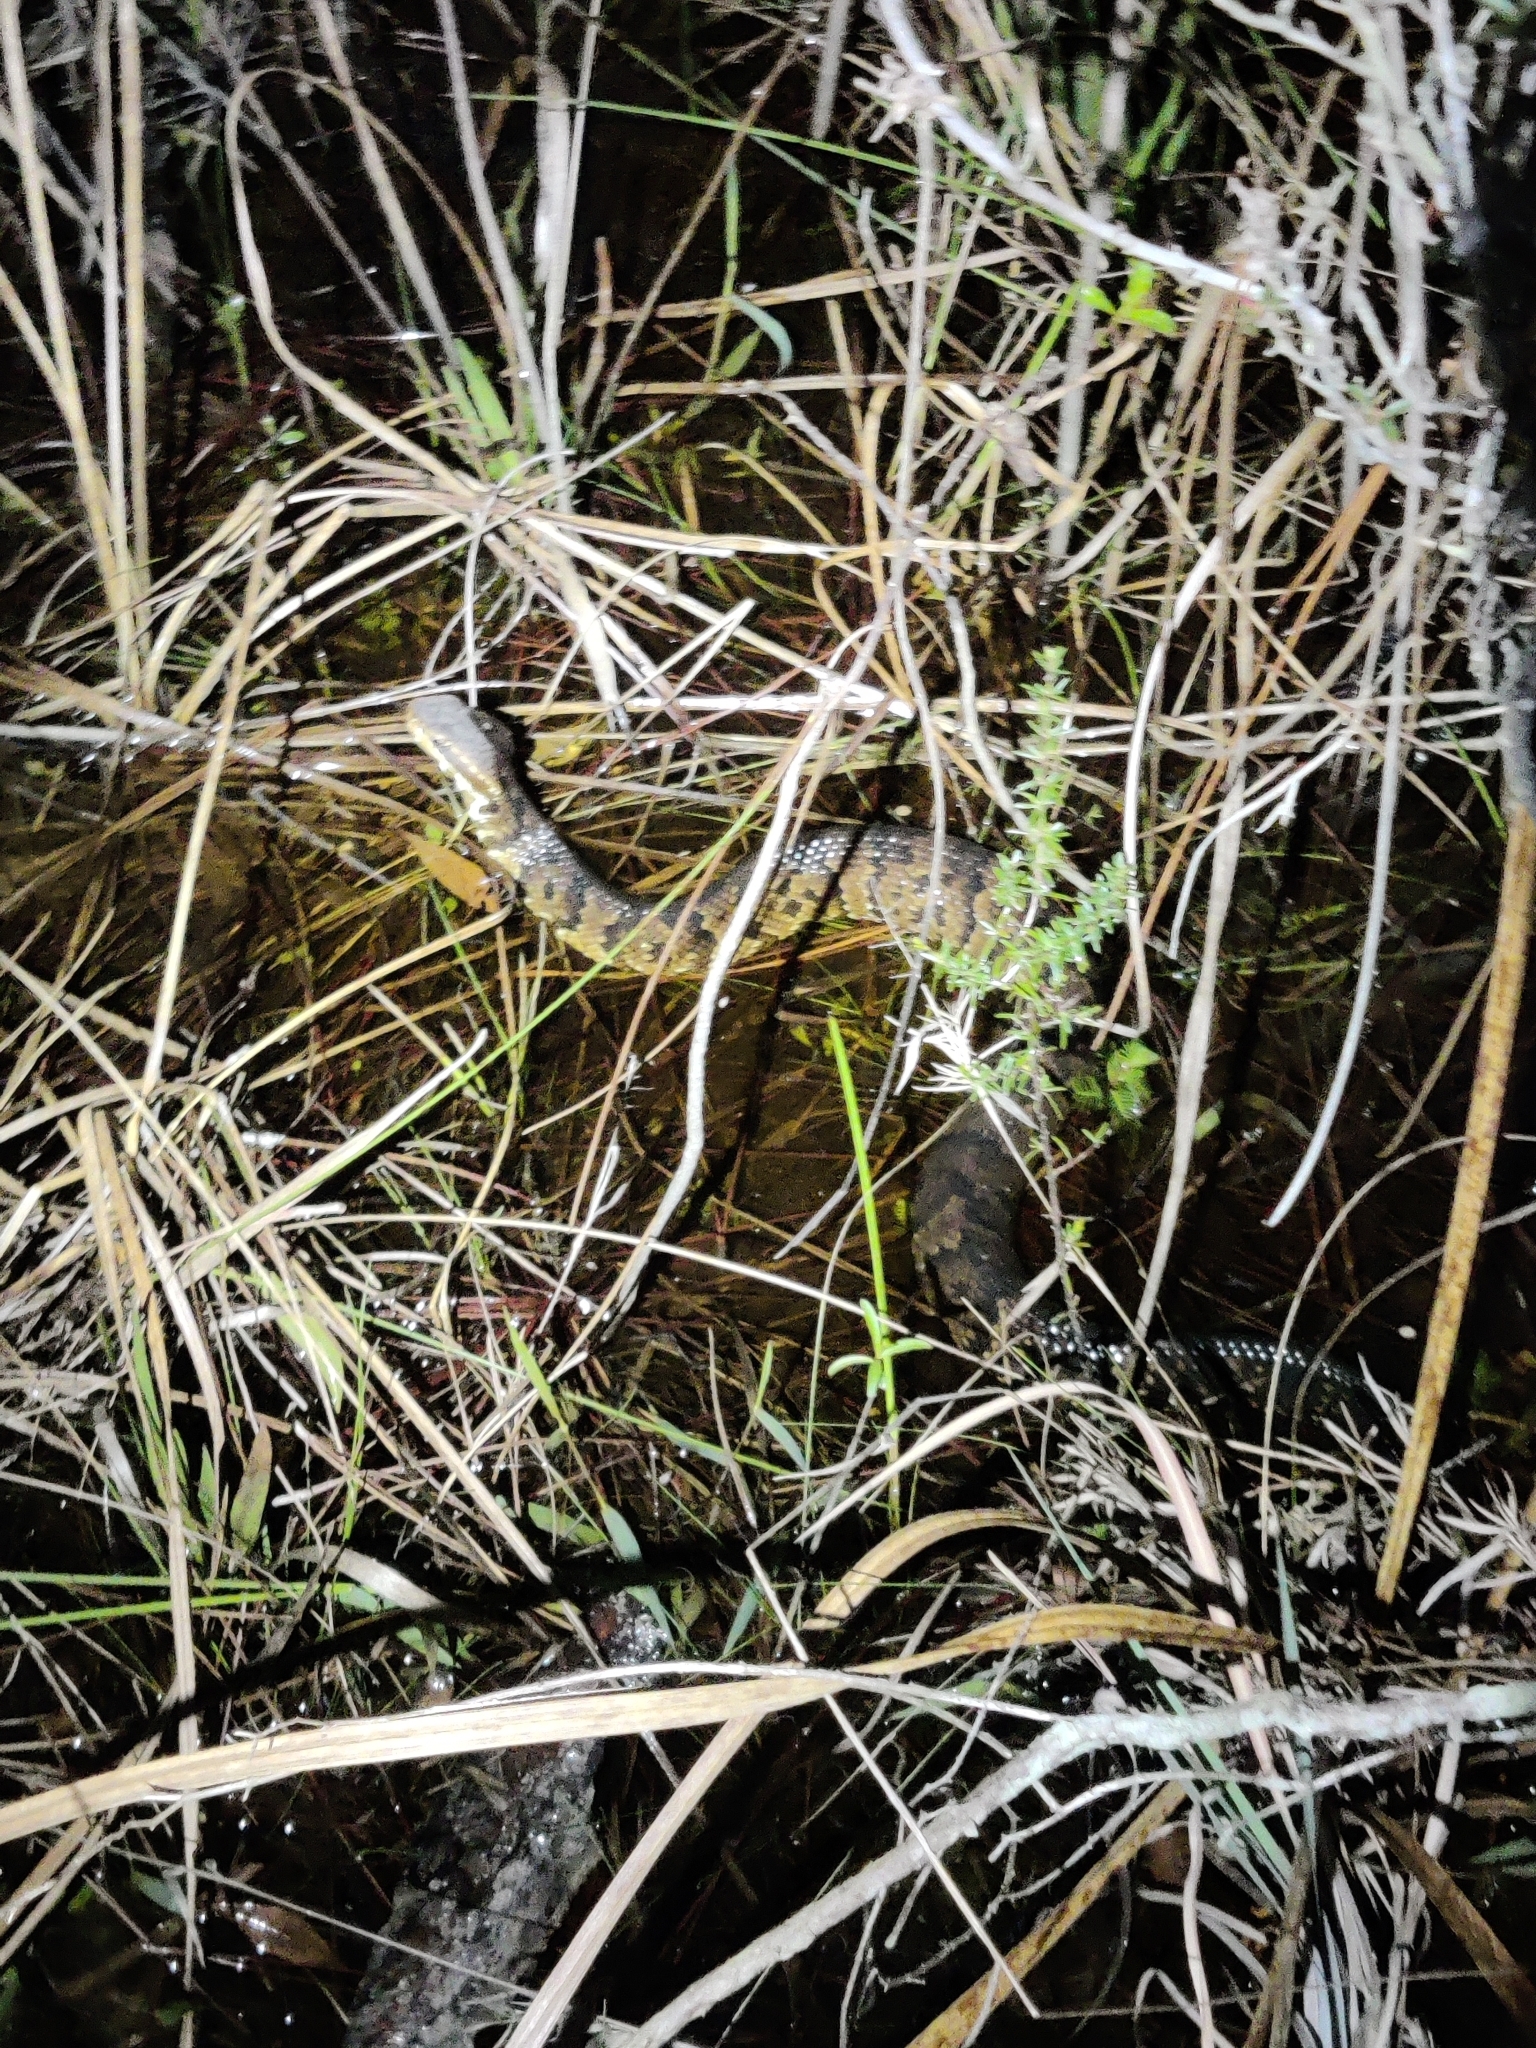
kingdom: Animalia
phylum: Chordata
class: Squamata
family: Viperidae
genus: Agkistrodon
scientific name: Agkistrodon conanti
